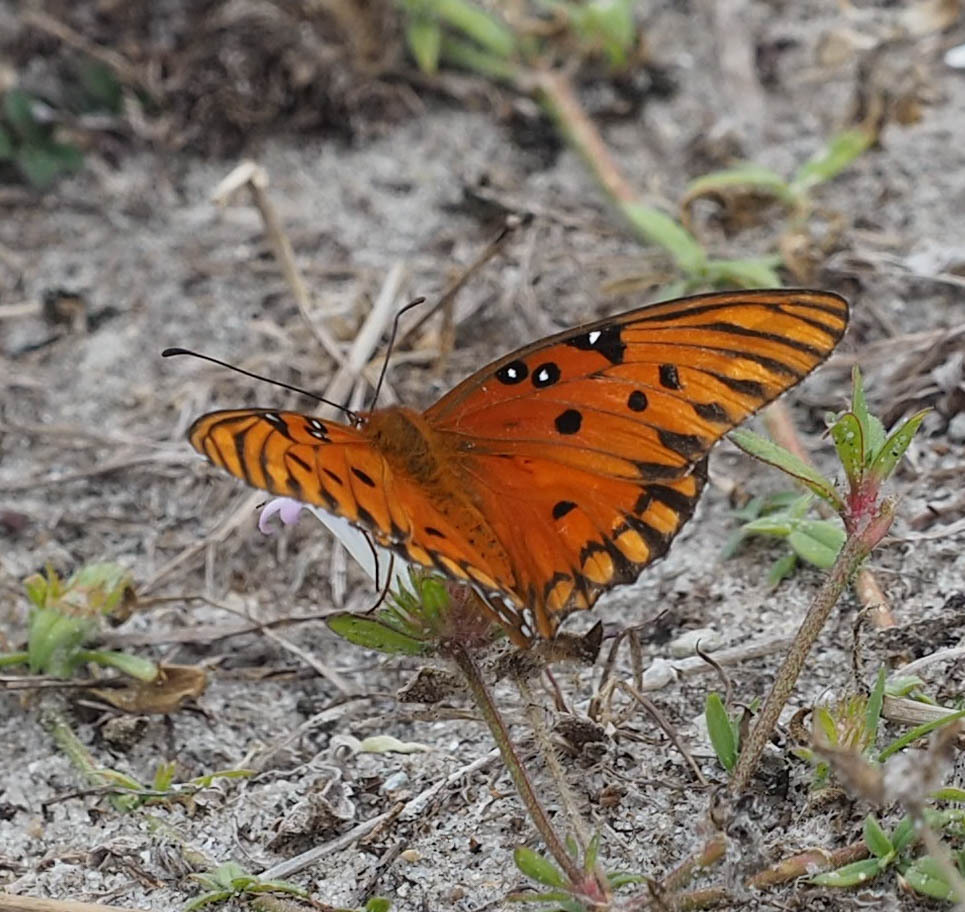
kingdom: Animalia
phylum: Arthropoda
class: Insecta
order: Lepidoptera
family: Nymphalidae
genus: Dione
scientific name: Dione vanillae
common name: Gulf fritillary
